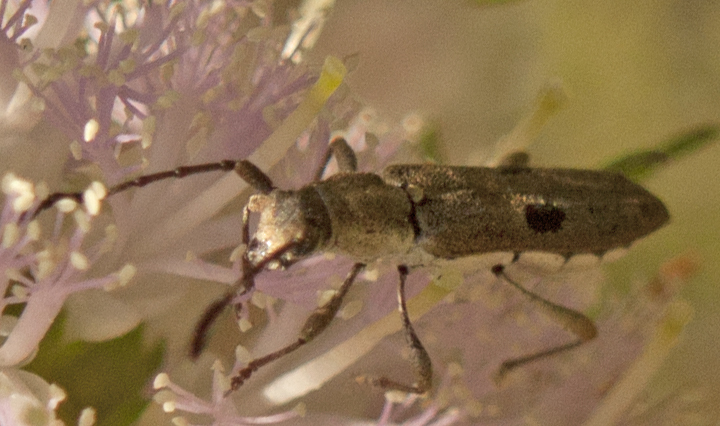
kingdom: Animalia
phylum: Arthropoda
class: Insecta
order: Coleoptera
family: Cerambycidae
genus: Pempsamacra
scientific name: Pempsamacra tillides
